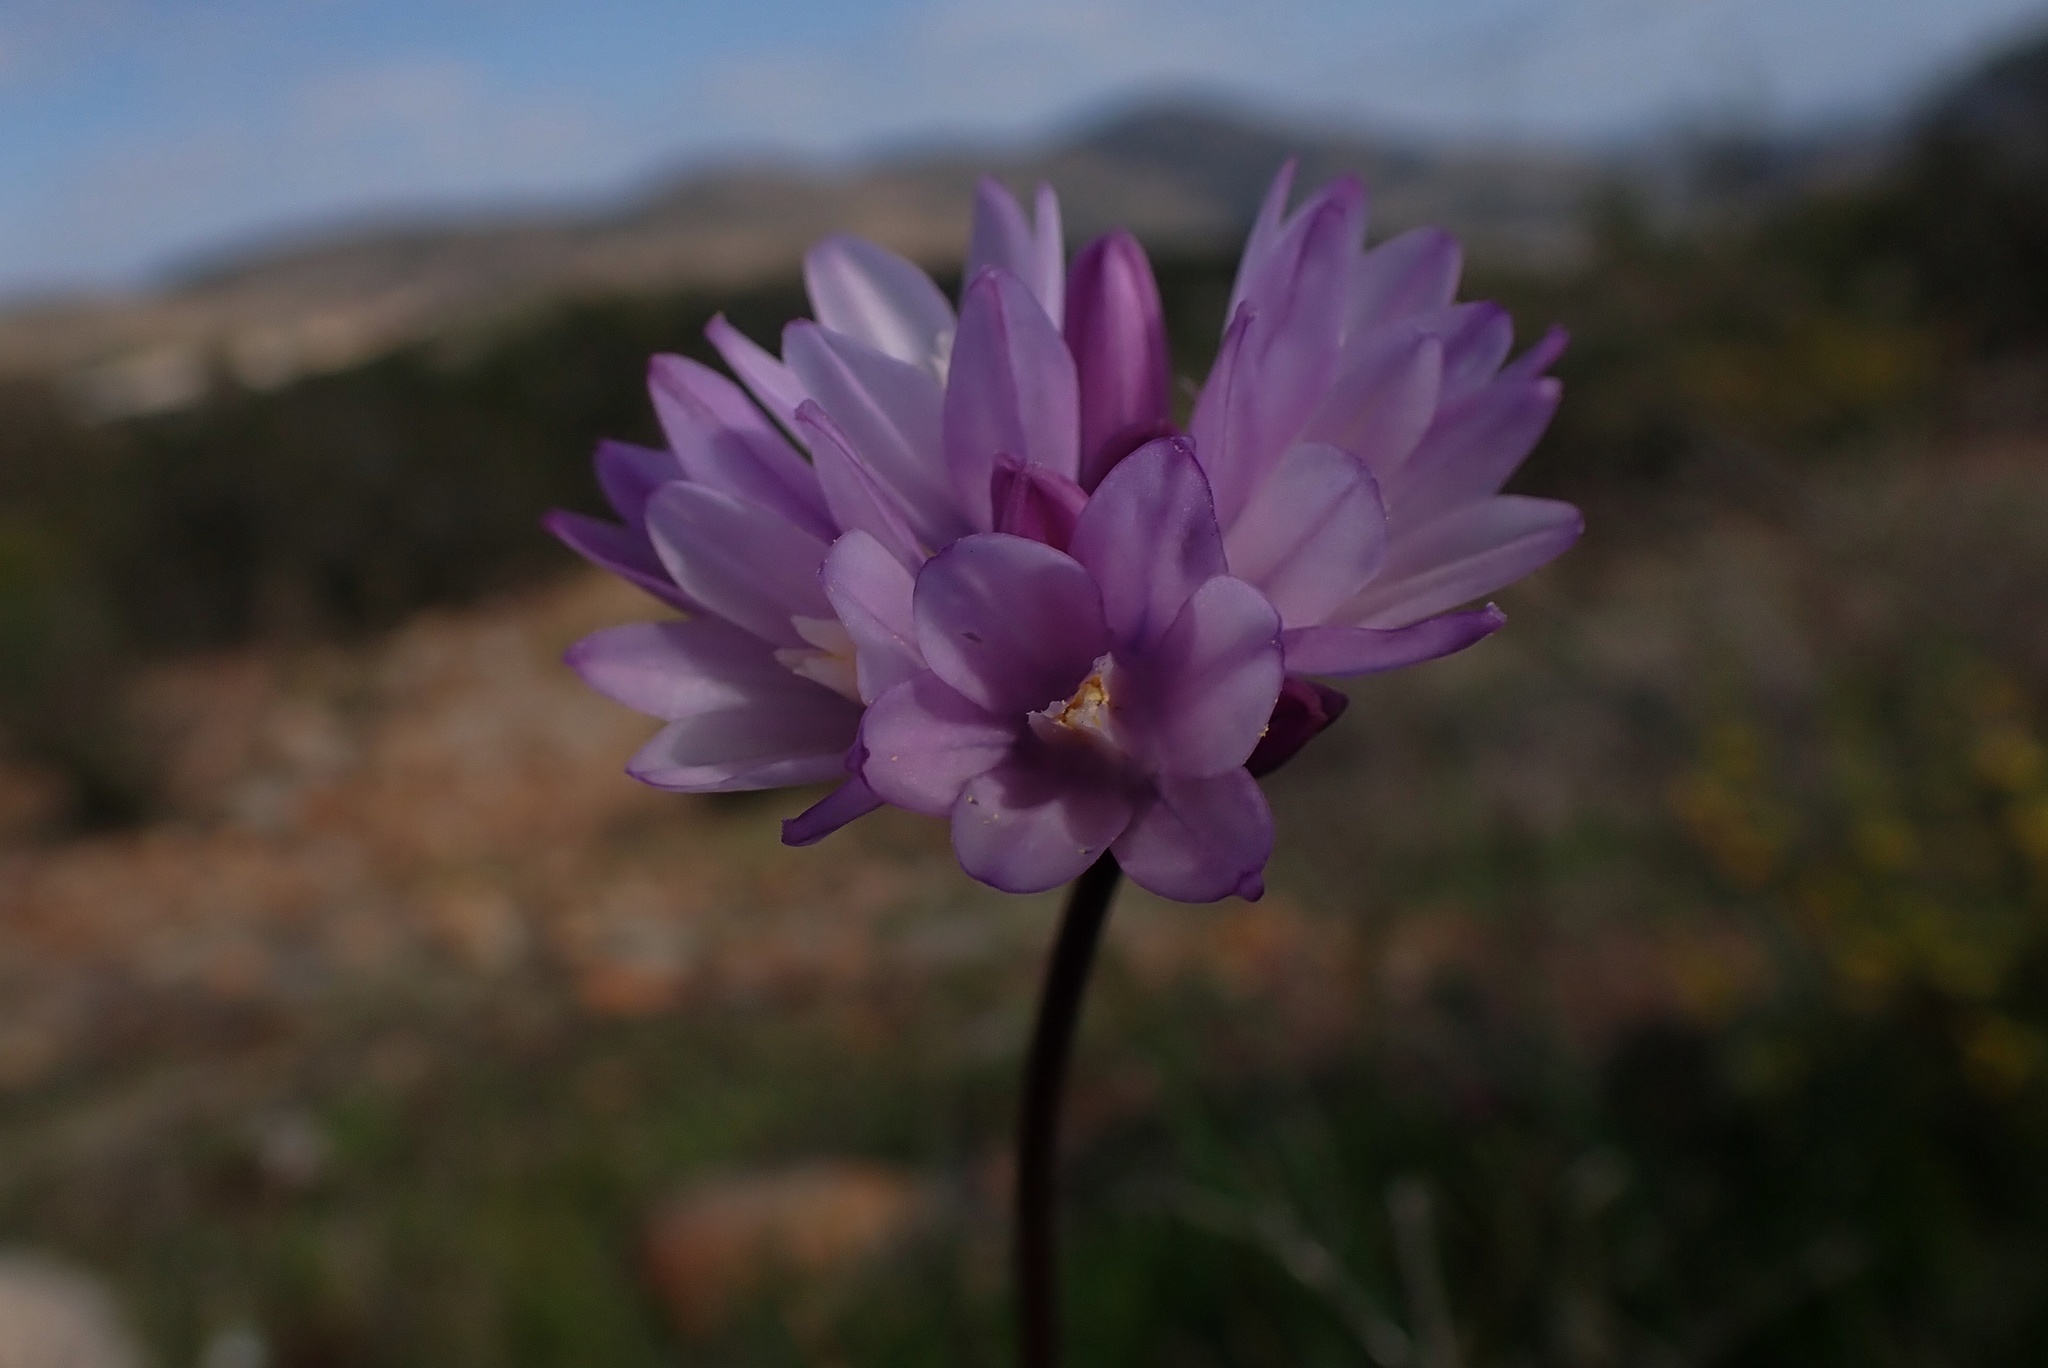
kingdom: Plantae
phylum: Tracheophyta
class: Liliopsida
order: Asparagales
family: Asparagaceae
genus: Dipterostemon
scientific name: Dipterostemon capitatus
